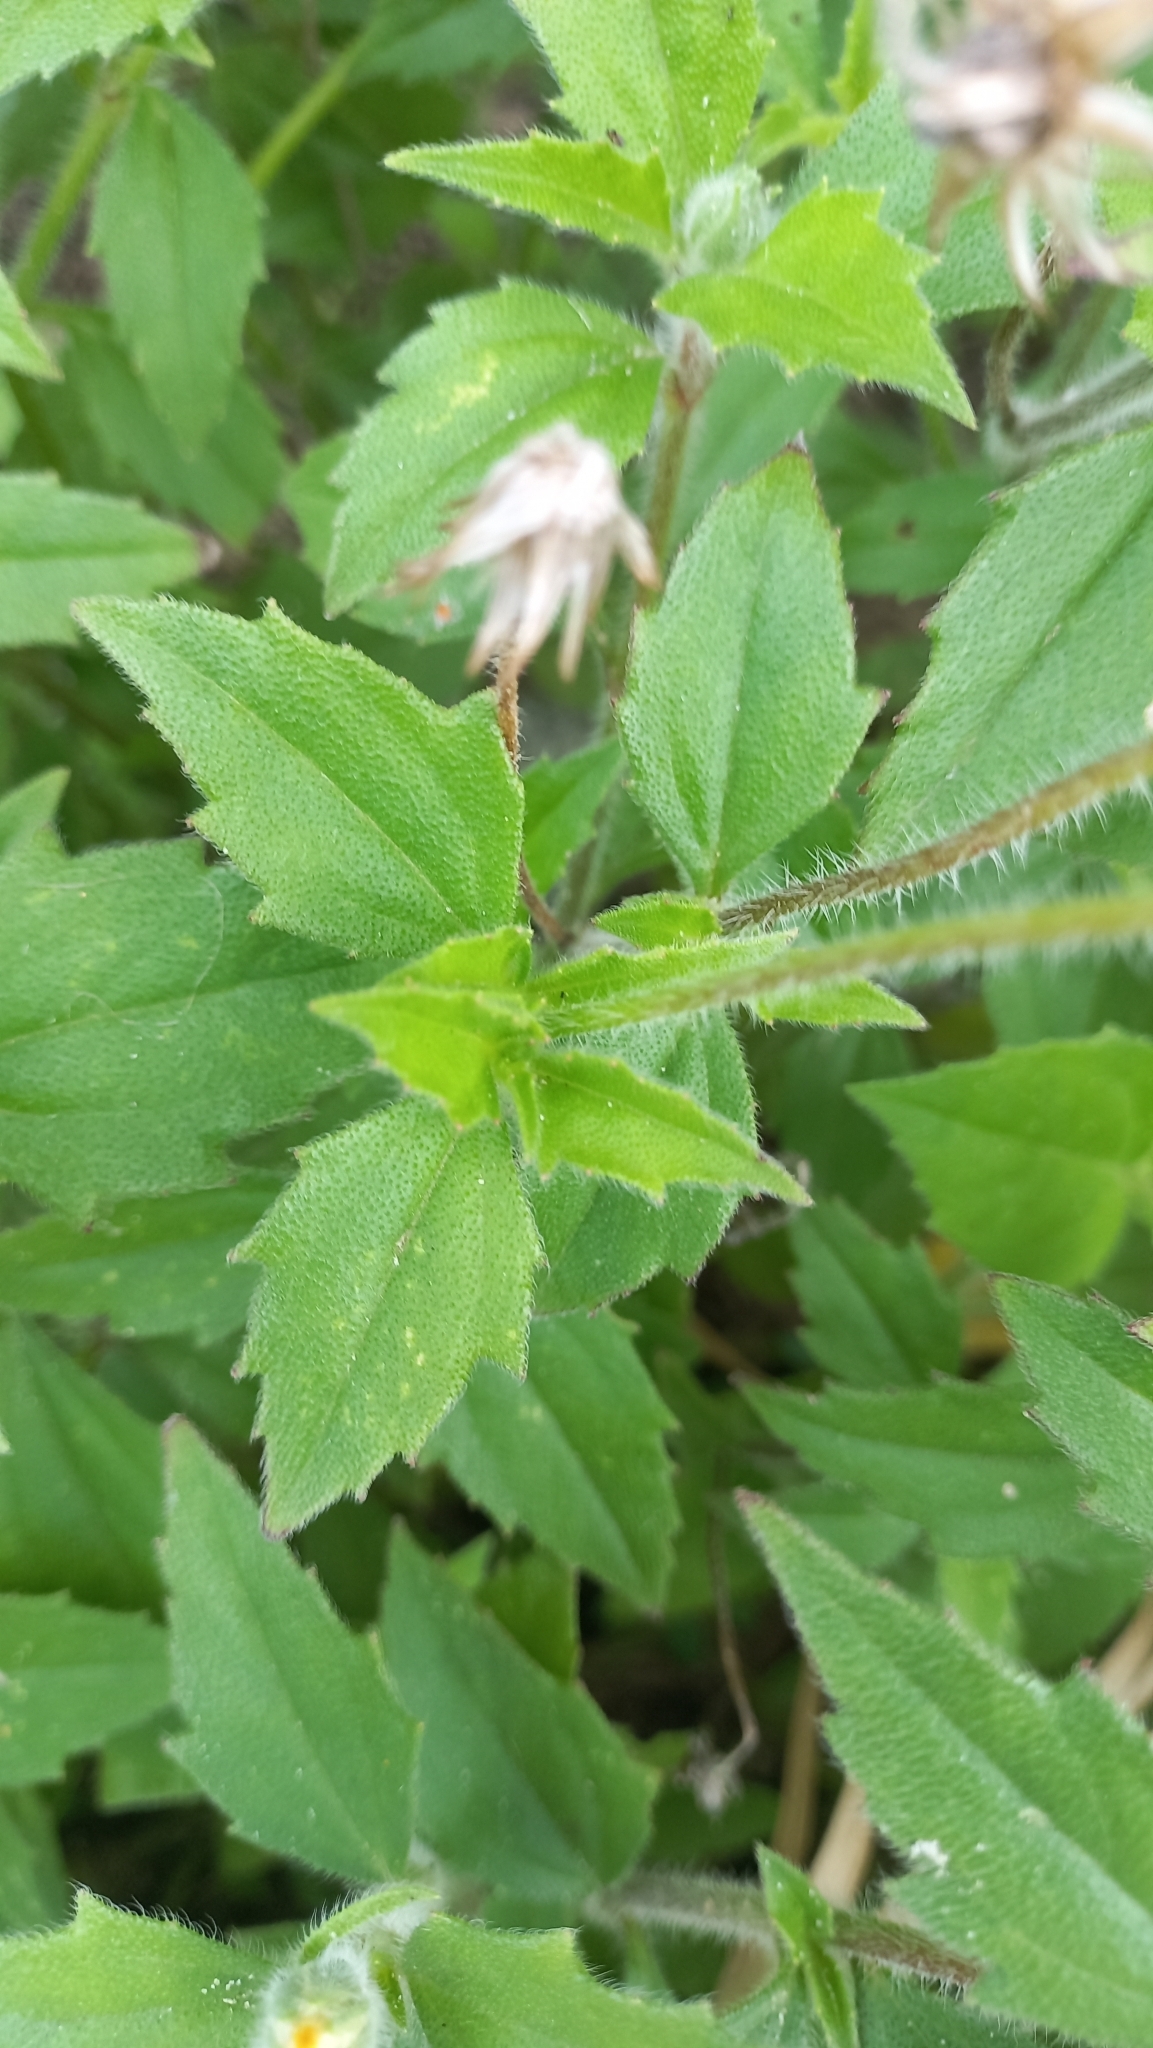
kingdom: Plantae
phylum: Tracheophyta
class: Magnoliopsida
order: Asterales
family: Asteraceae
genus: Tridax
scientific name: Tridax procumbens
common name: Coatbuttons
